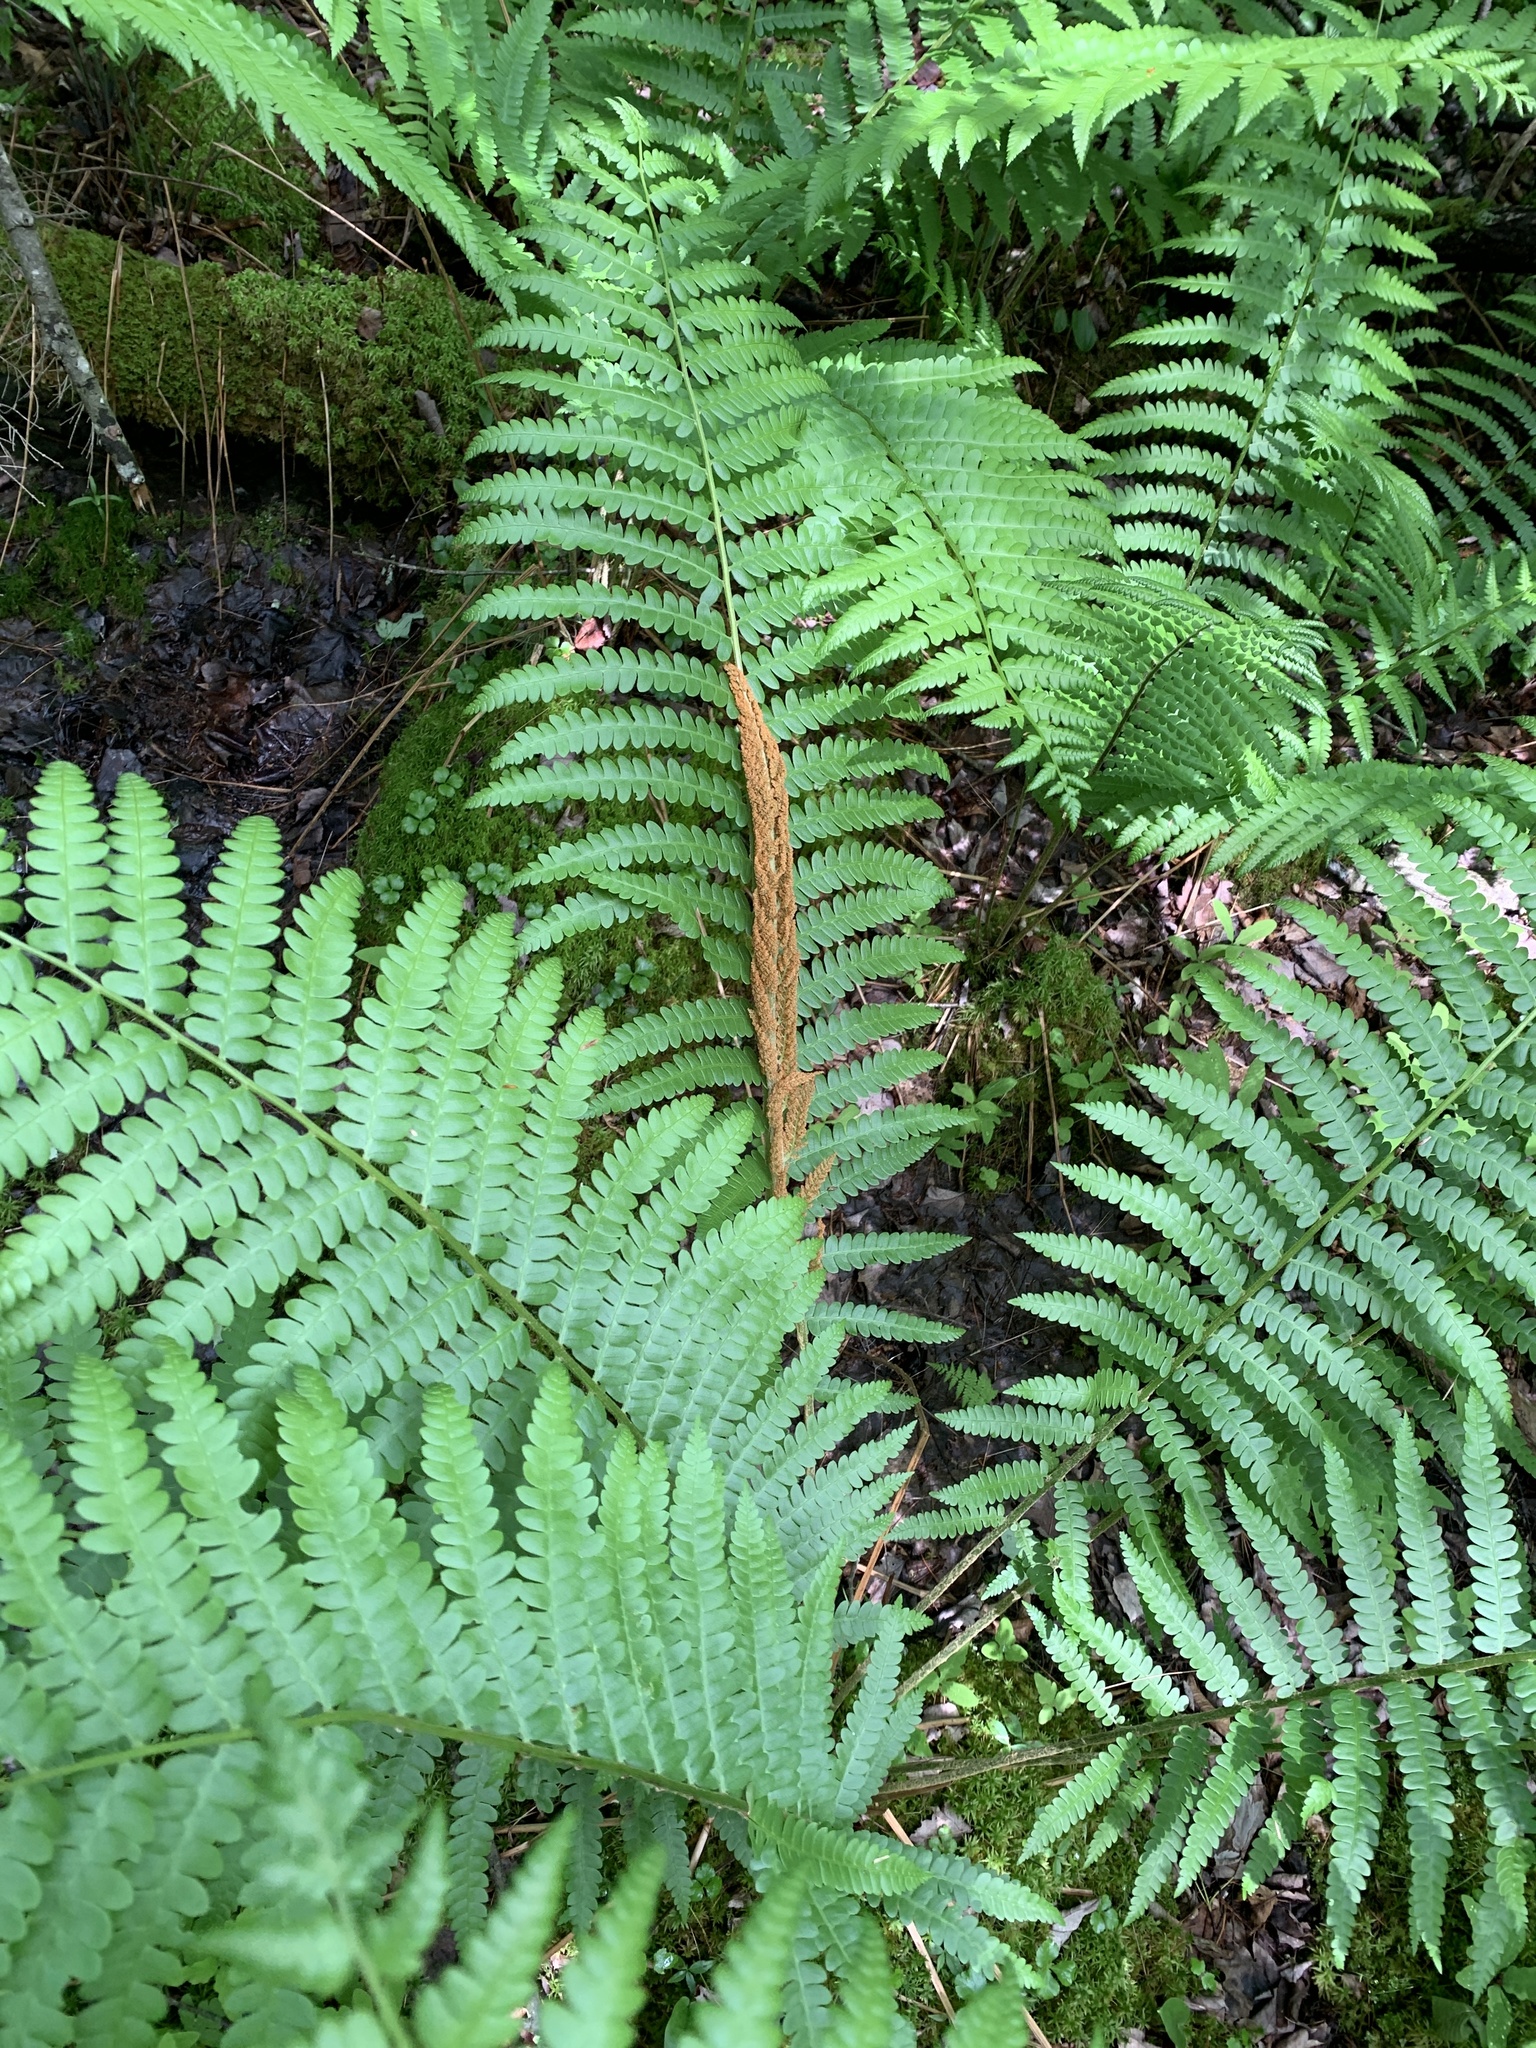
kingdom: Plantae
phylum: Tracheophyta
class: Polypodiopsida
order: Osmundales
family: Osmundaceae
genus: Osmundastrum
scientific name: Osmundastrum cinnamomeum
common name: Cinnamon fern
